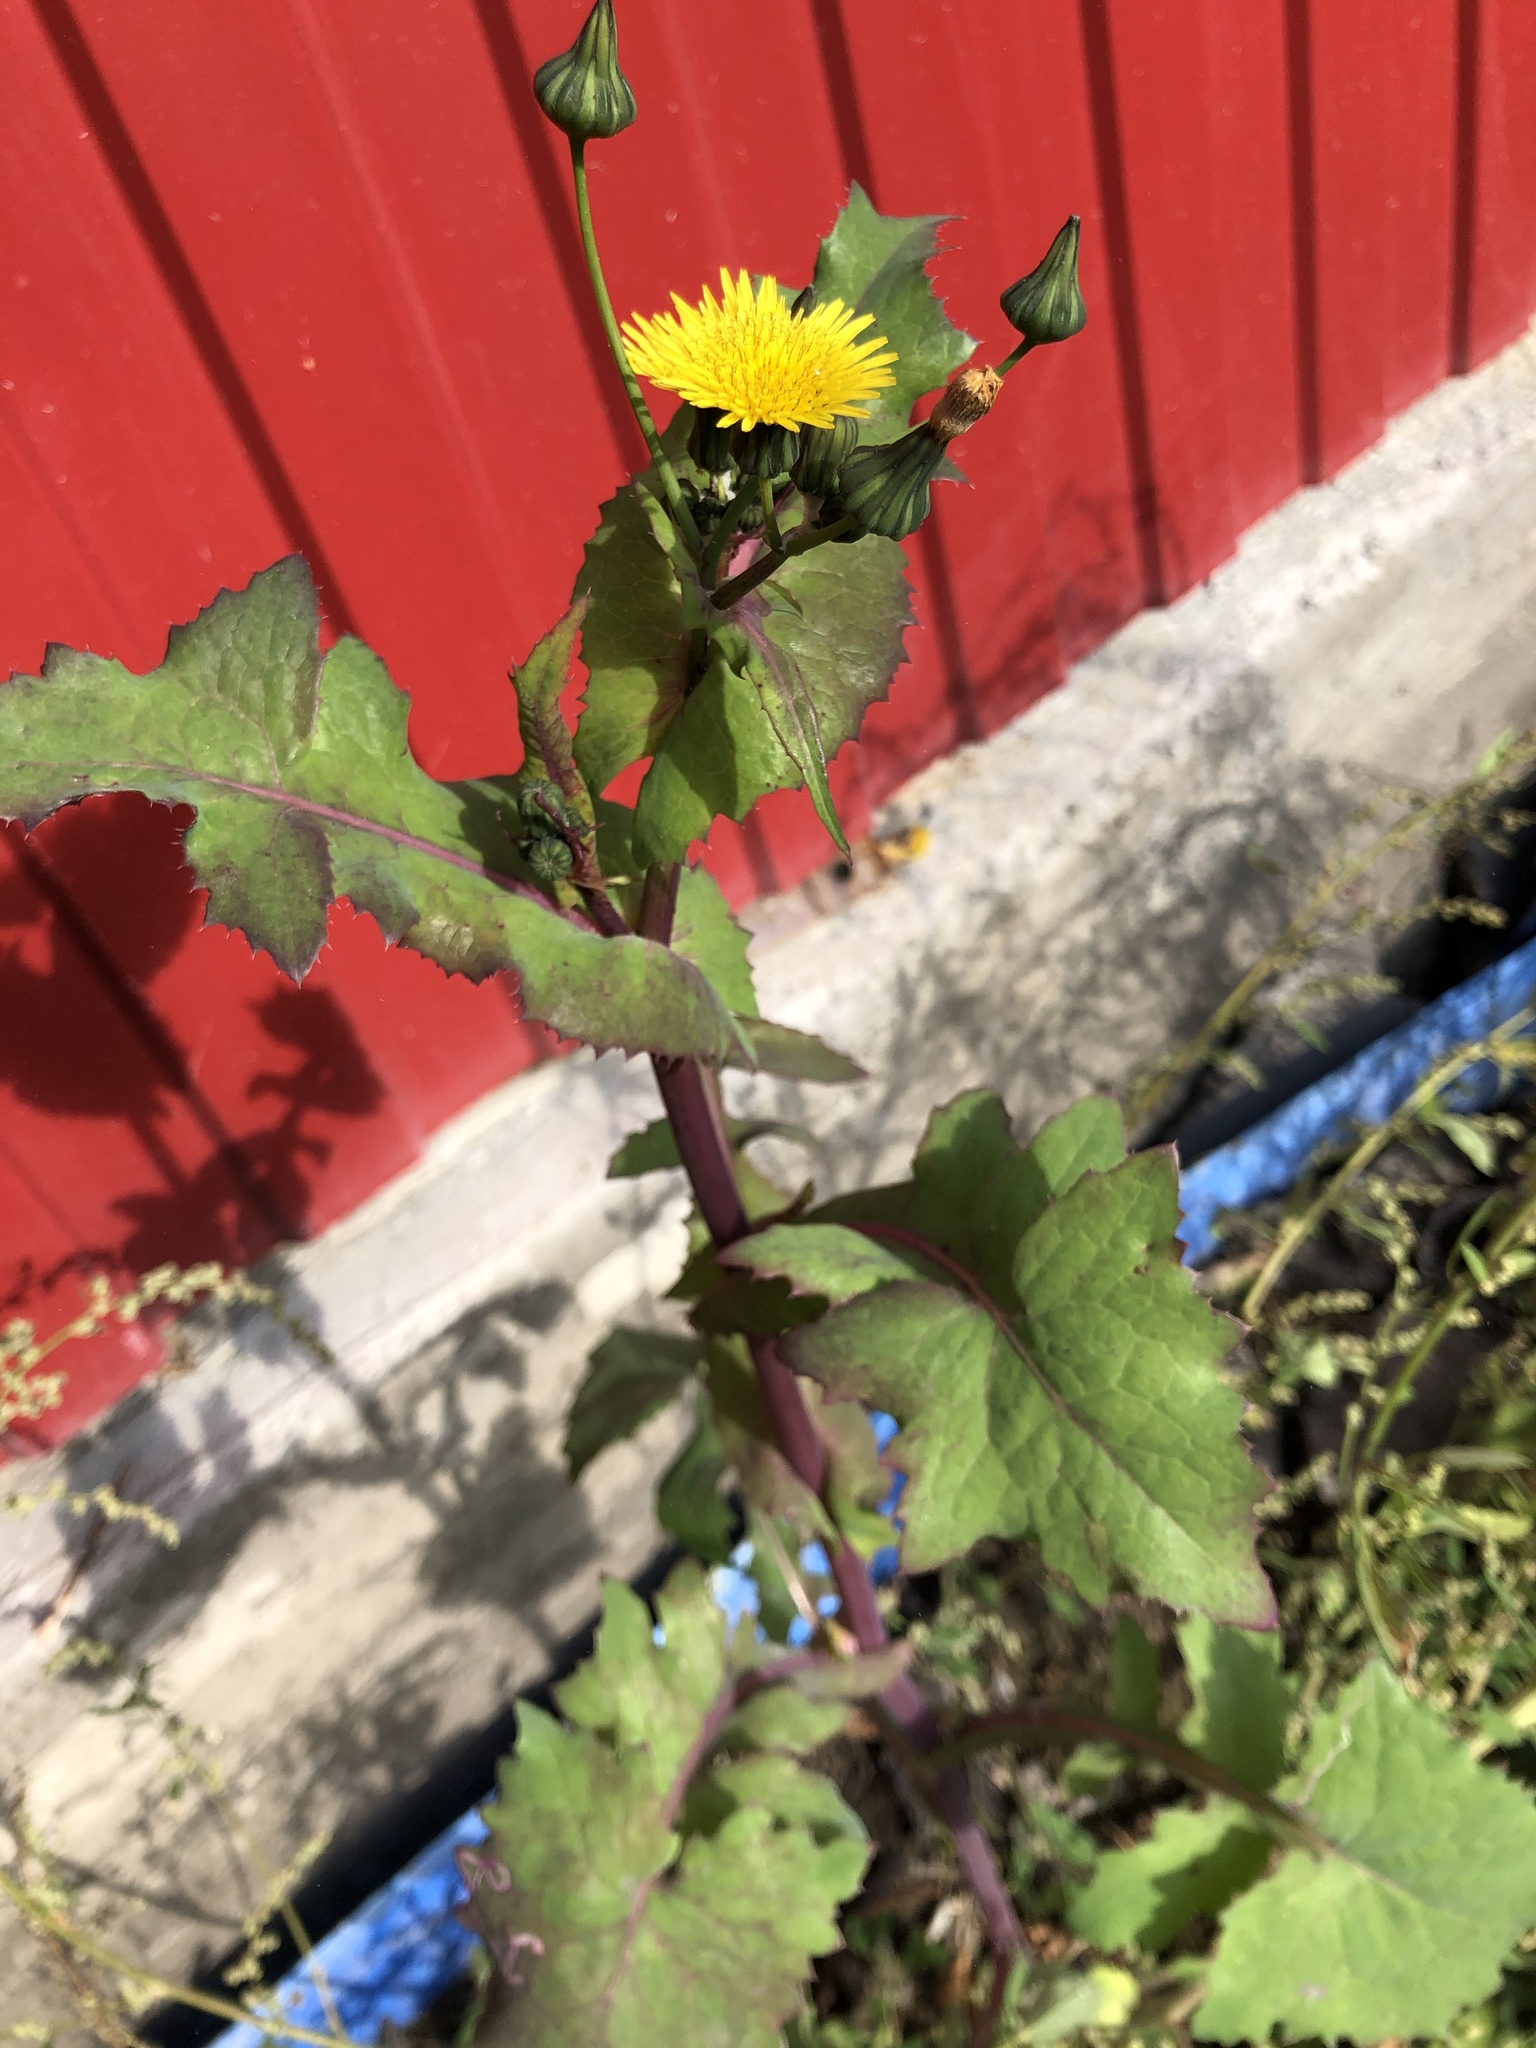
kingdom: Plantae
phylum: Tracheophyta
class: Magnoliopsida
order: Asterales
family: Asteraceae
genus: Sonchus
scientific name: Sonchus oleraceus
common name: Common sowthistle
